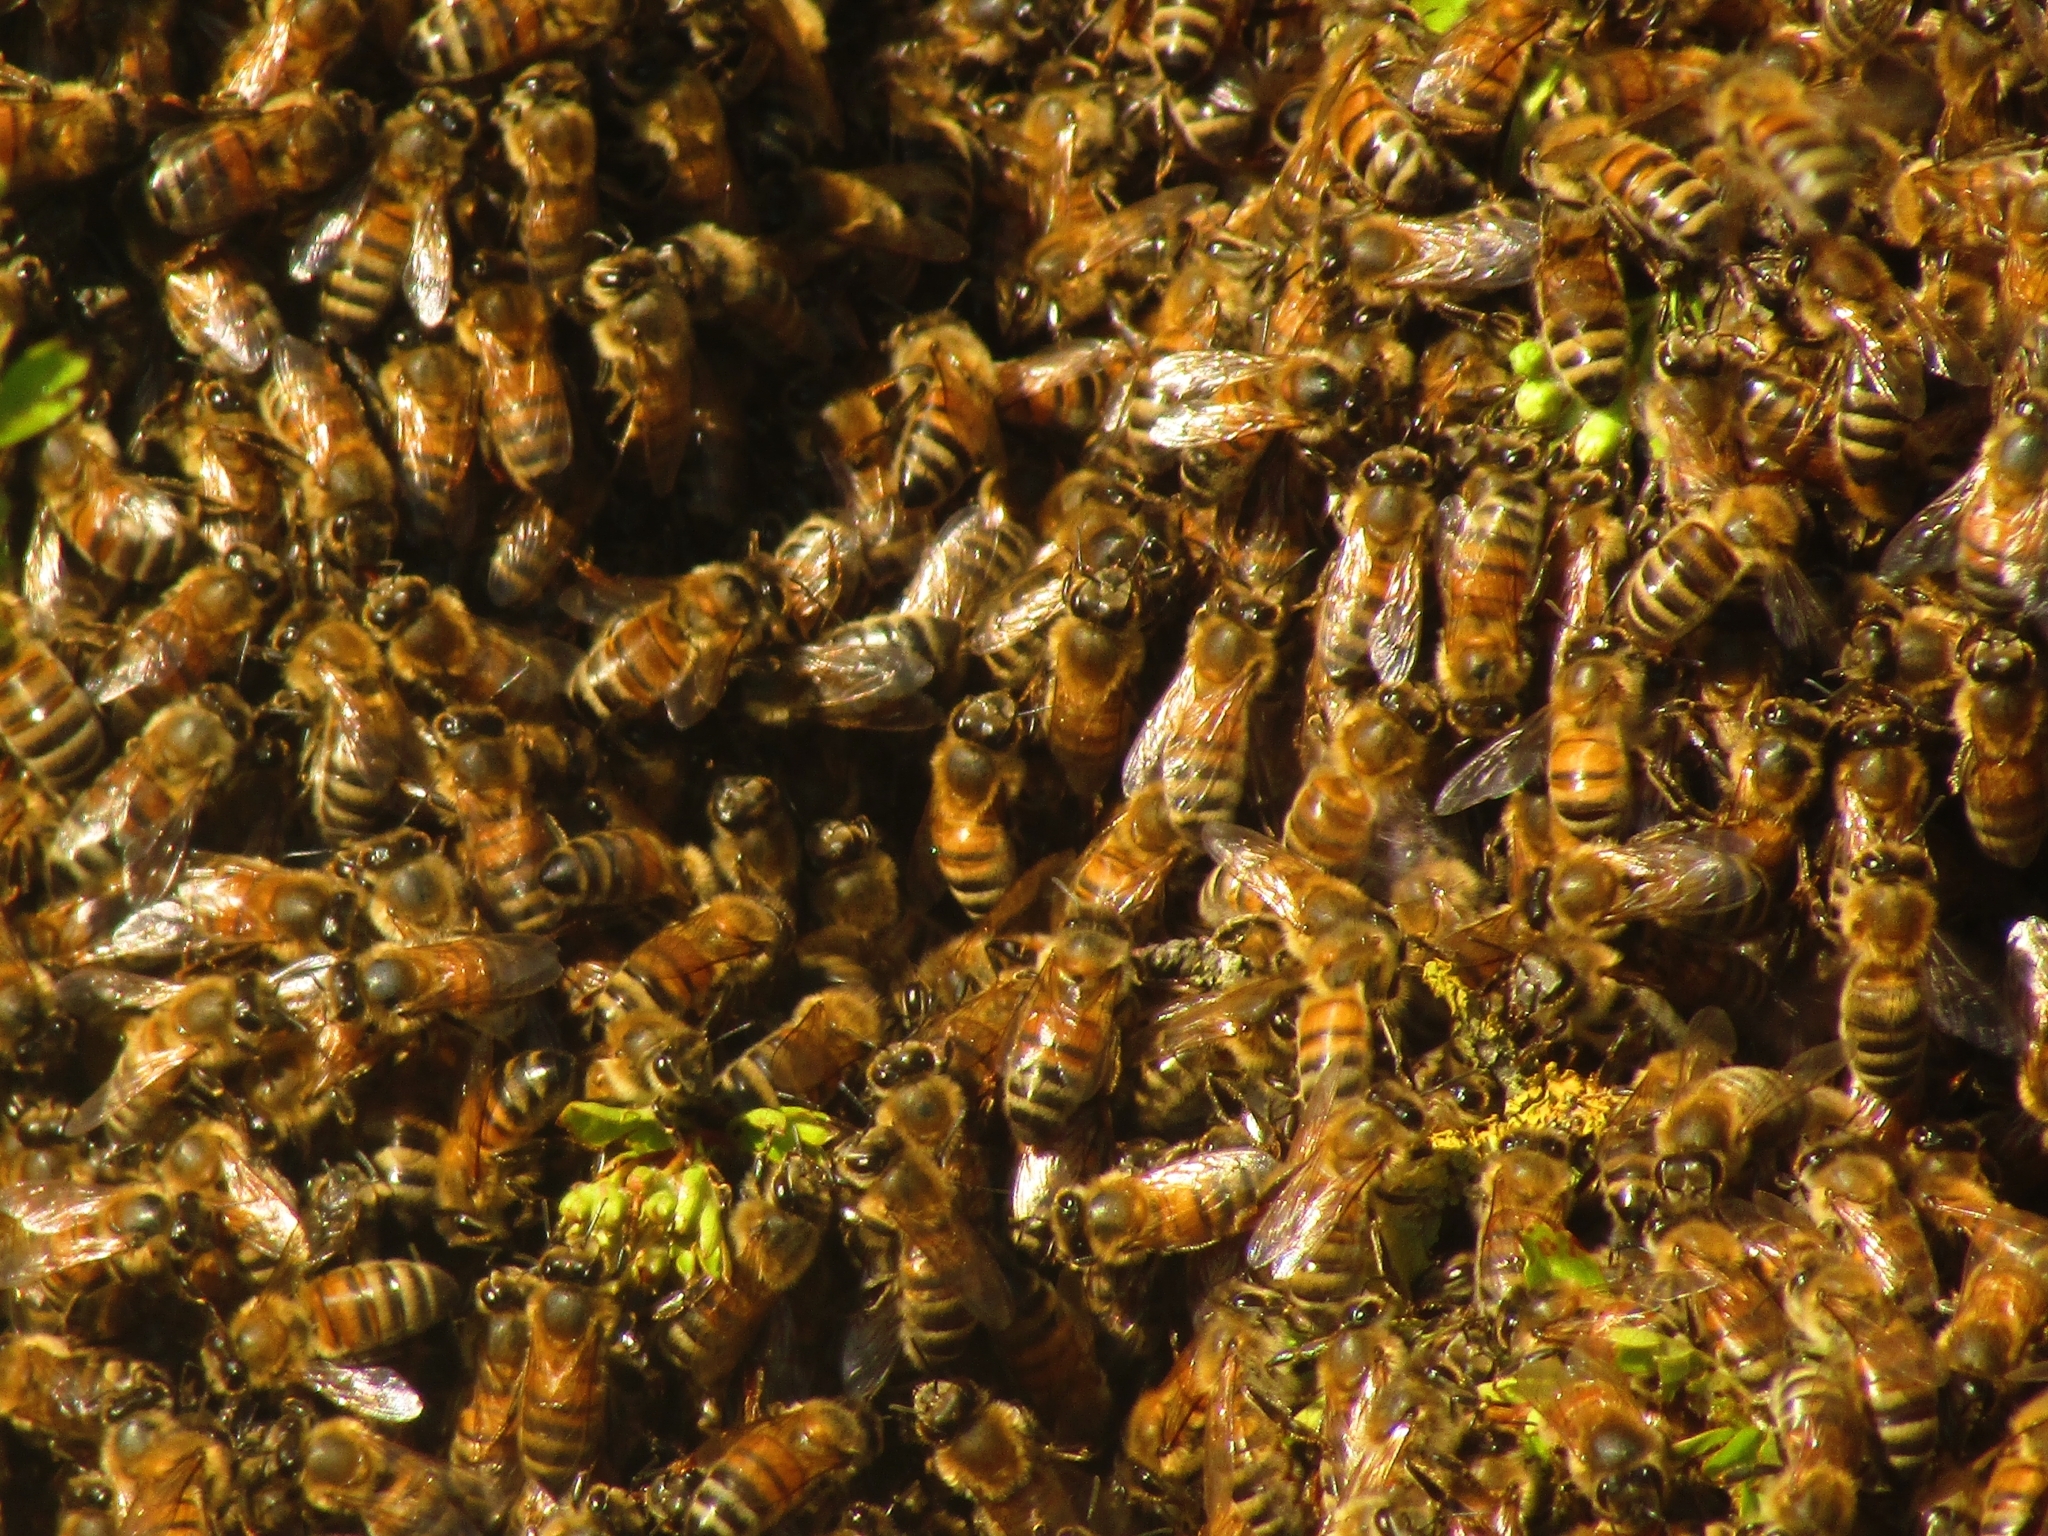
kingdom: Animalia
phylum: Arthropoda
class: Insecta
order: Hymenoptera
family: Apidae
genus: Apis
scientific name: Apis mellifera
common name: Honey bee
